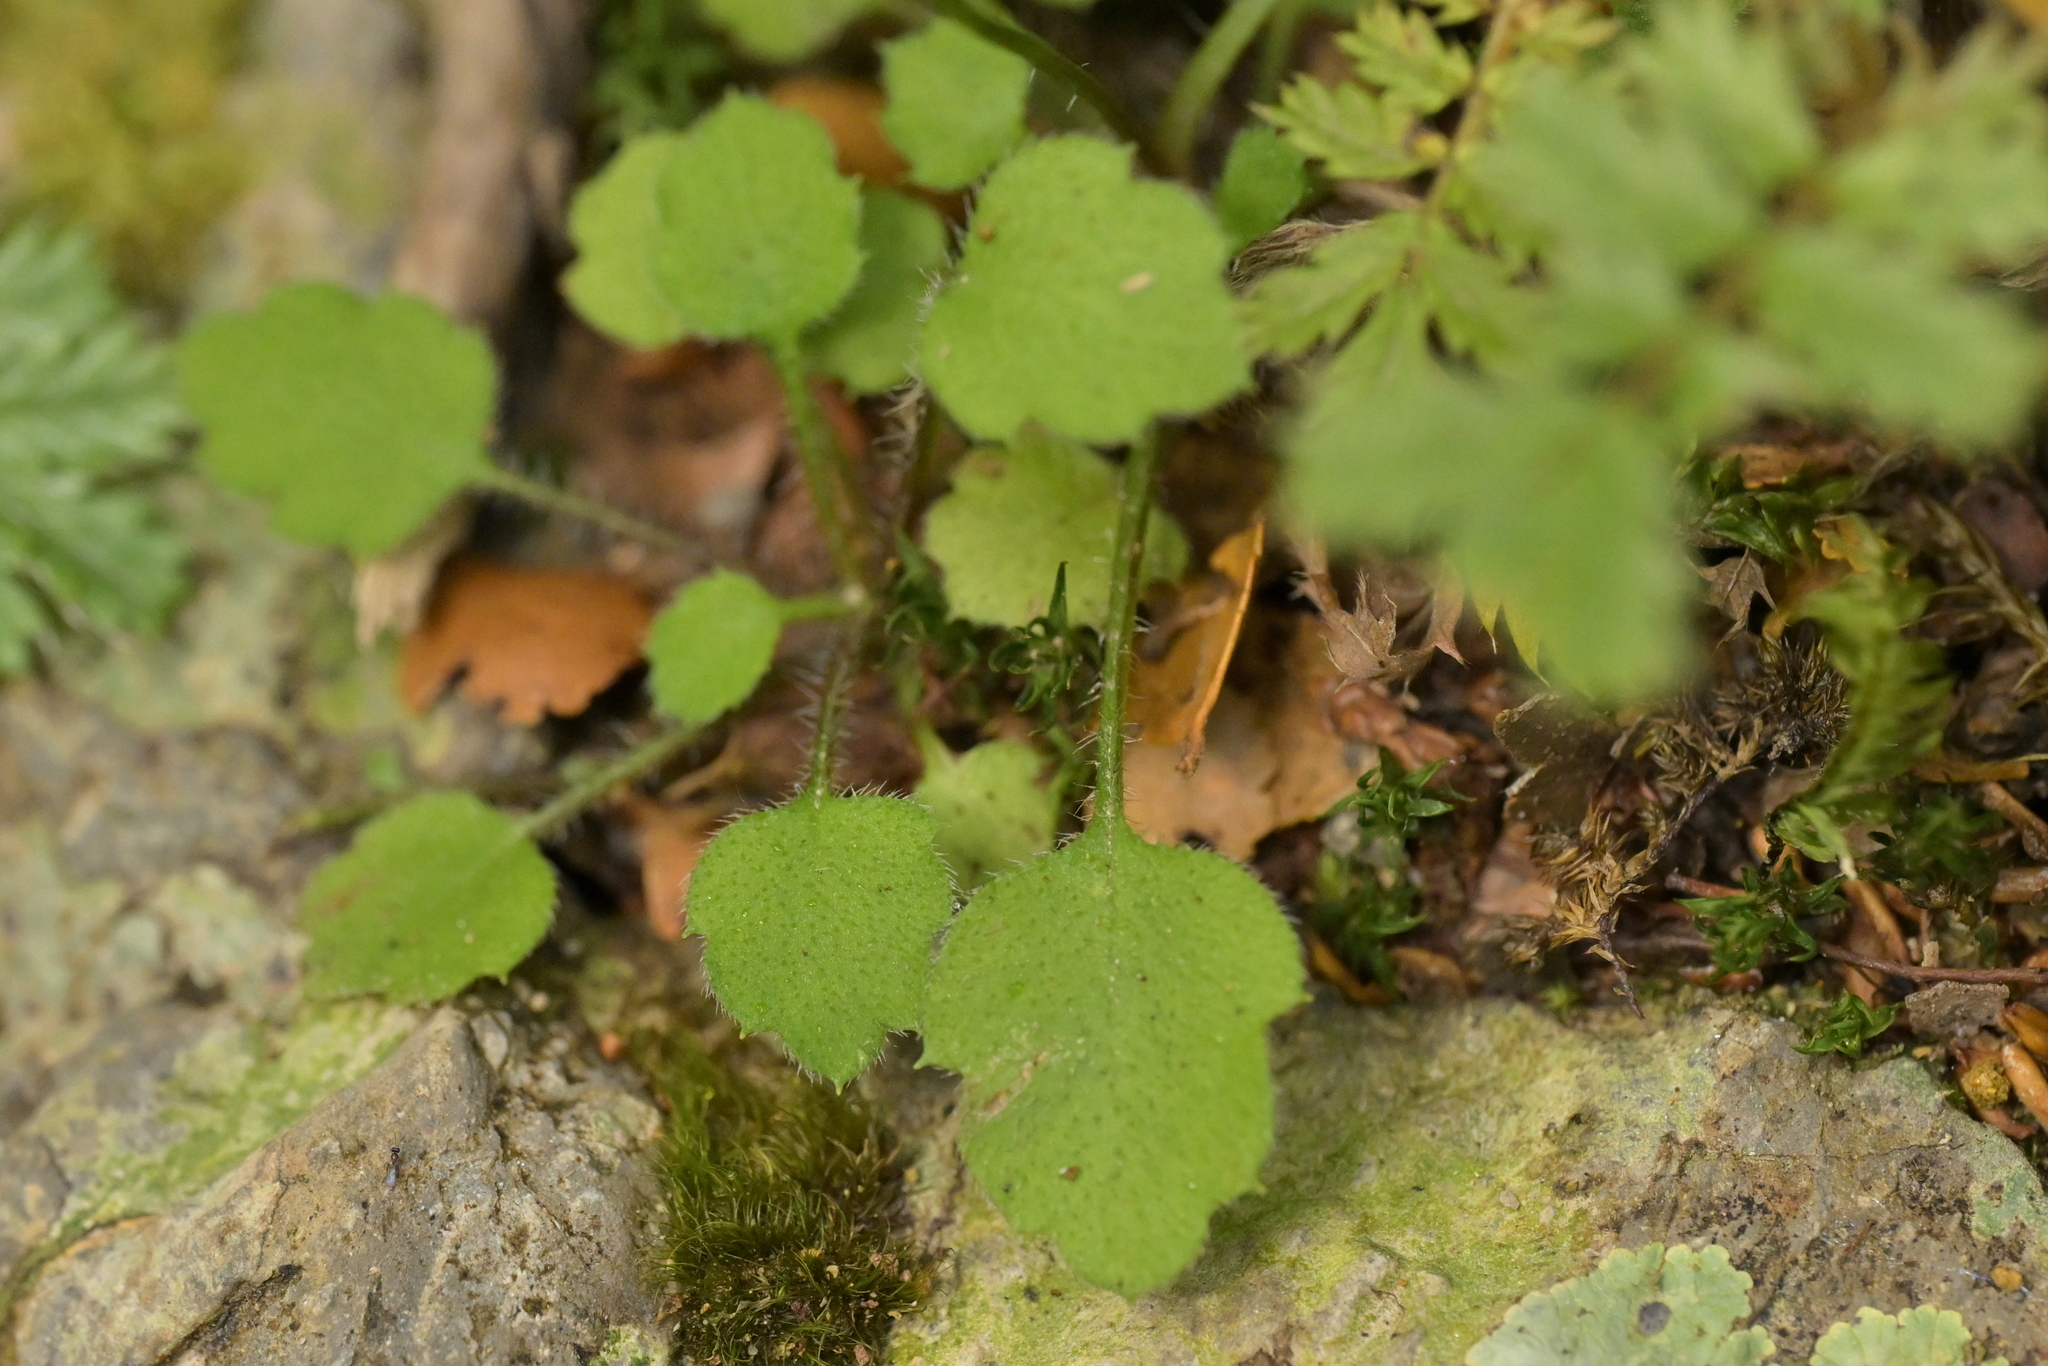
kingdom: Plantae
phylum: Tracheophyta
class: Magnoliopsida
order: Asterales
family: Asteraceae
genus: Lagenophora
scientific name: Lagenophora strangulata
